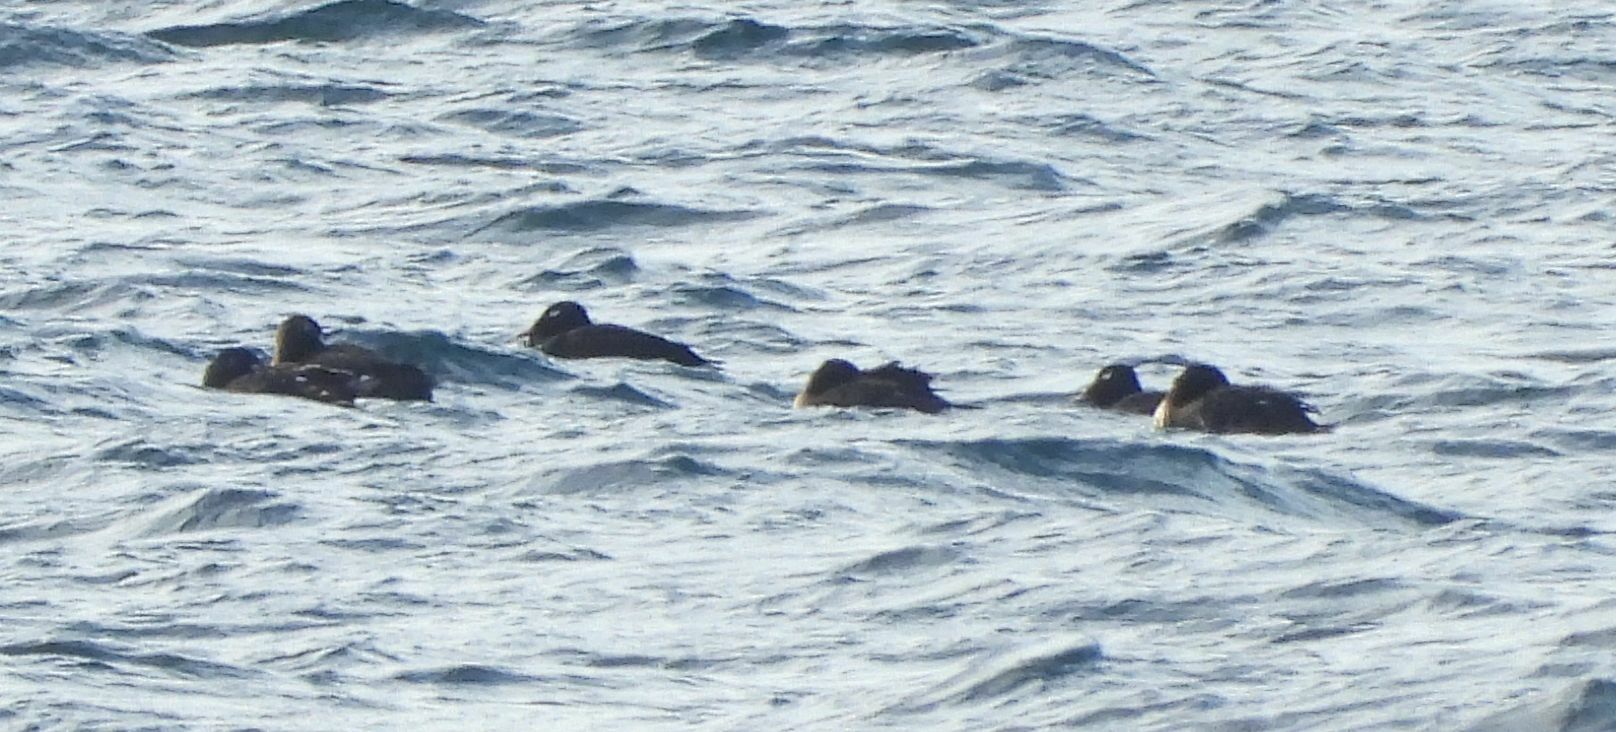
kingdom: Animalia
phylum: Chordata
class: Aves
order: Anseriformes
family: Anatidae
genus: Melanitta
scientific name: Melanitta deglandi
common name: White-winged scoter
